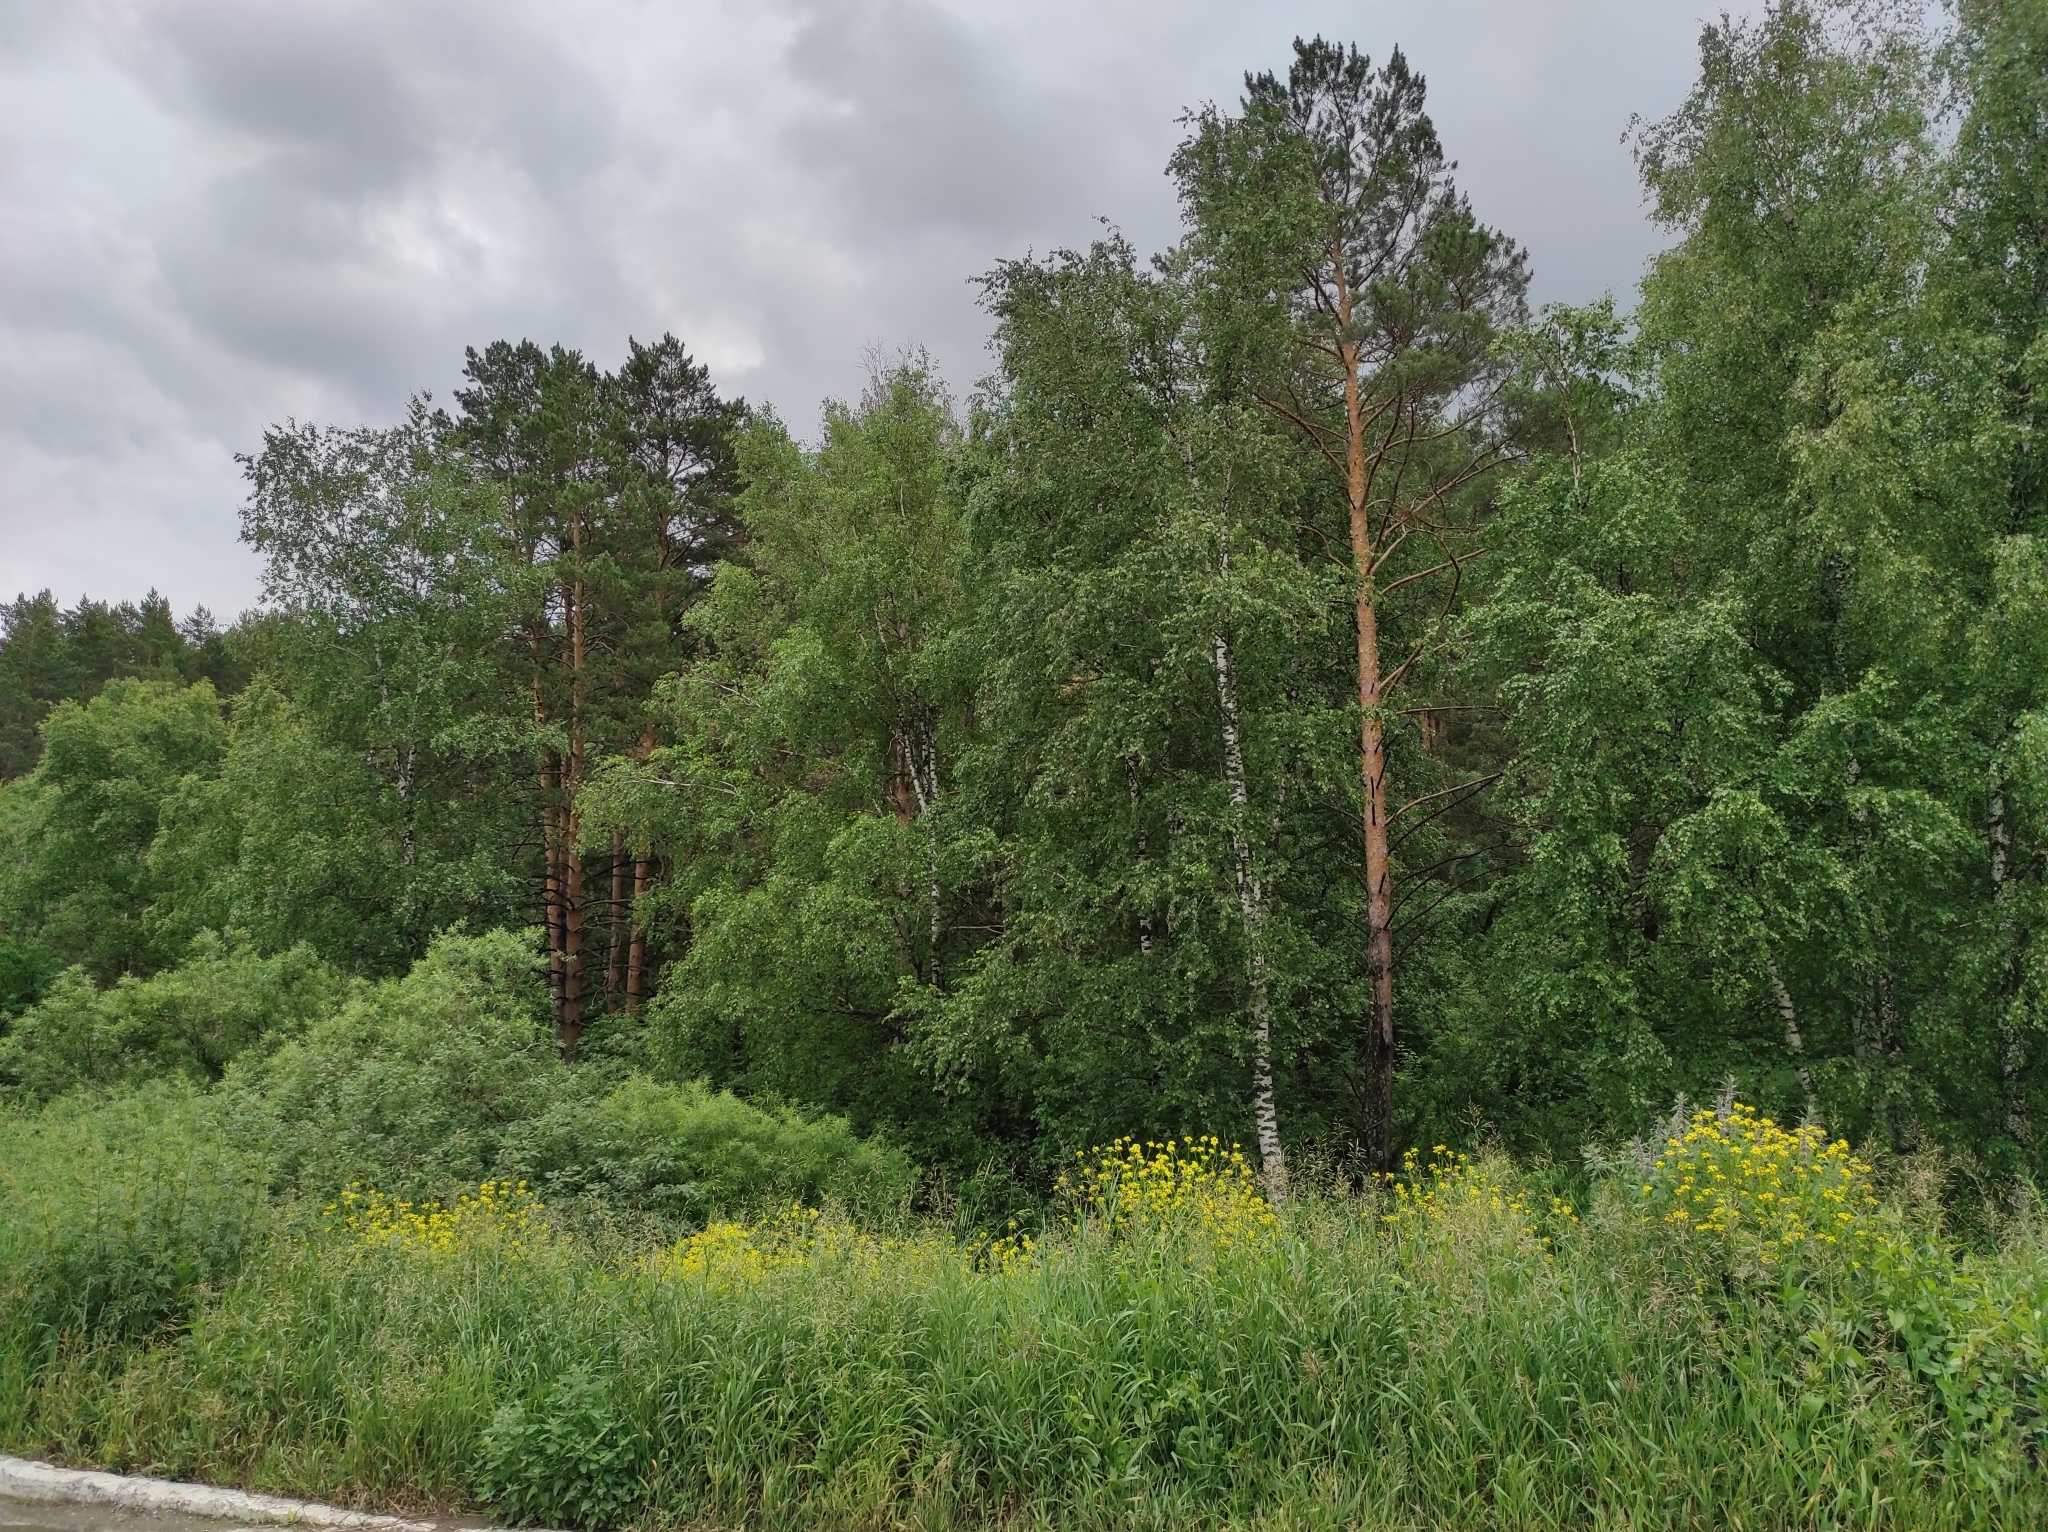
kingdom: Plantae
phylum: Tracheophyta
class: Pinopsida
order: Pinales
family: Pinaceae
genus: Pinus
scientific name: Pinus sylvestris
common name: Scots pine
